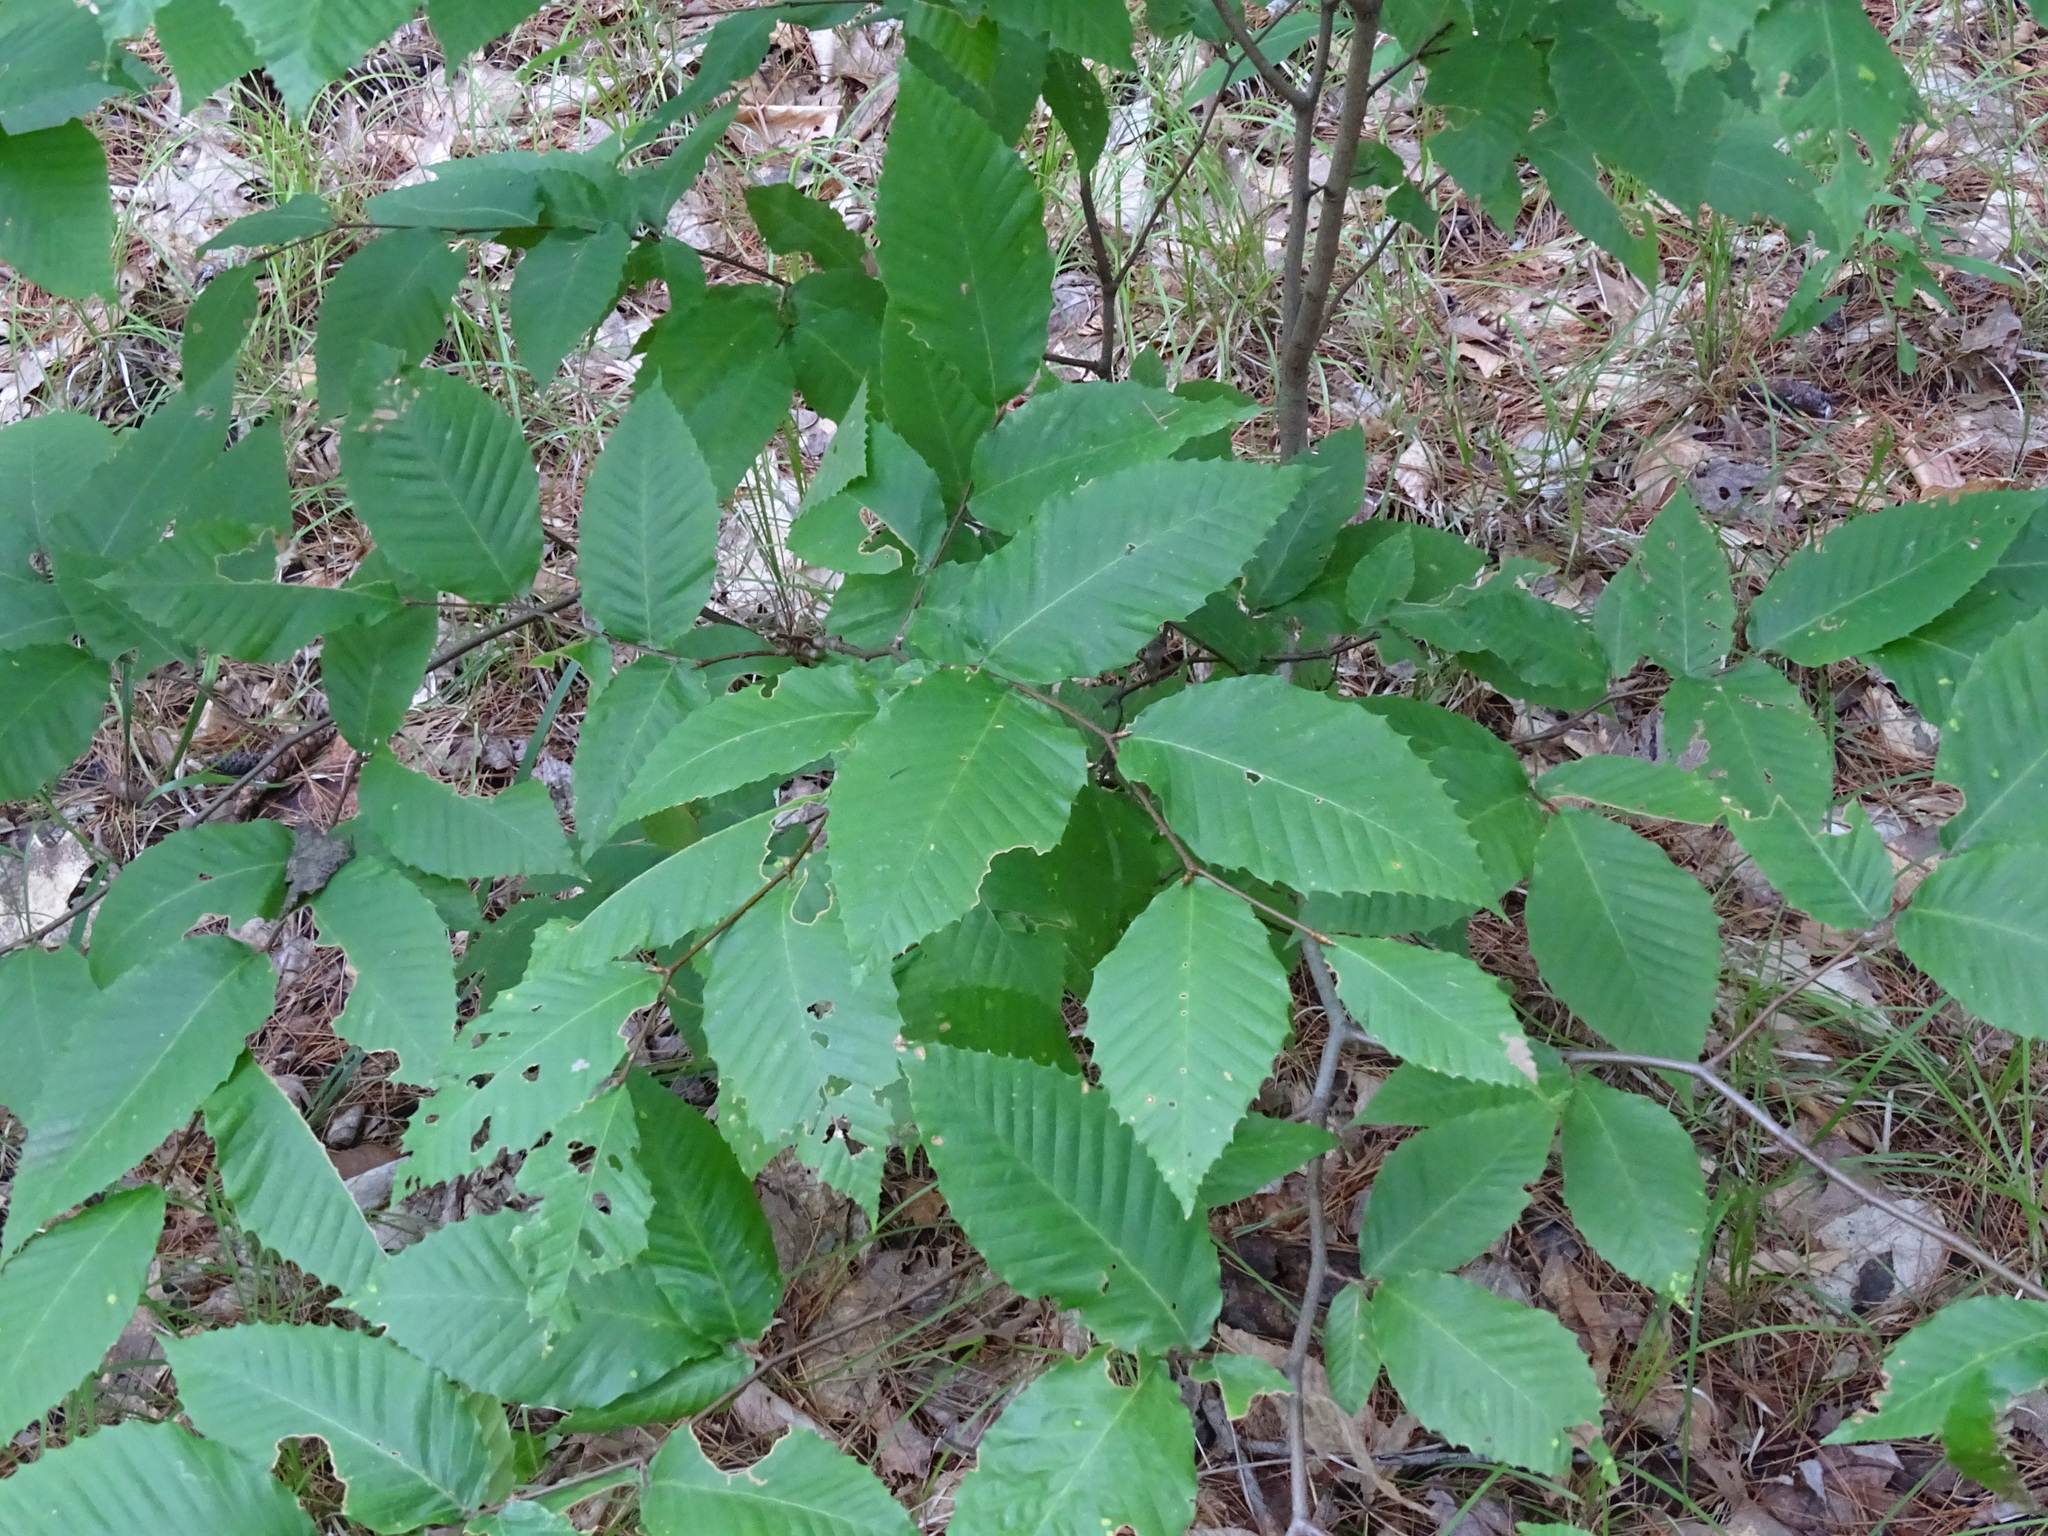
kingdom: Plantae
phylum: Tracheophyta
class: Magnoliopsida
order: Fagales
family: Fagaceae
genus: Fagus
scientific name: Fagus grandifolia
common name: American beech
